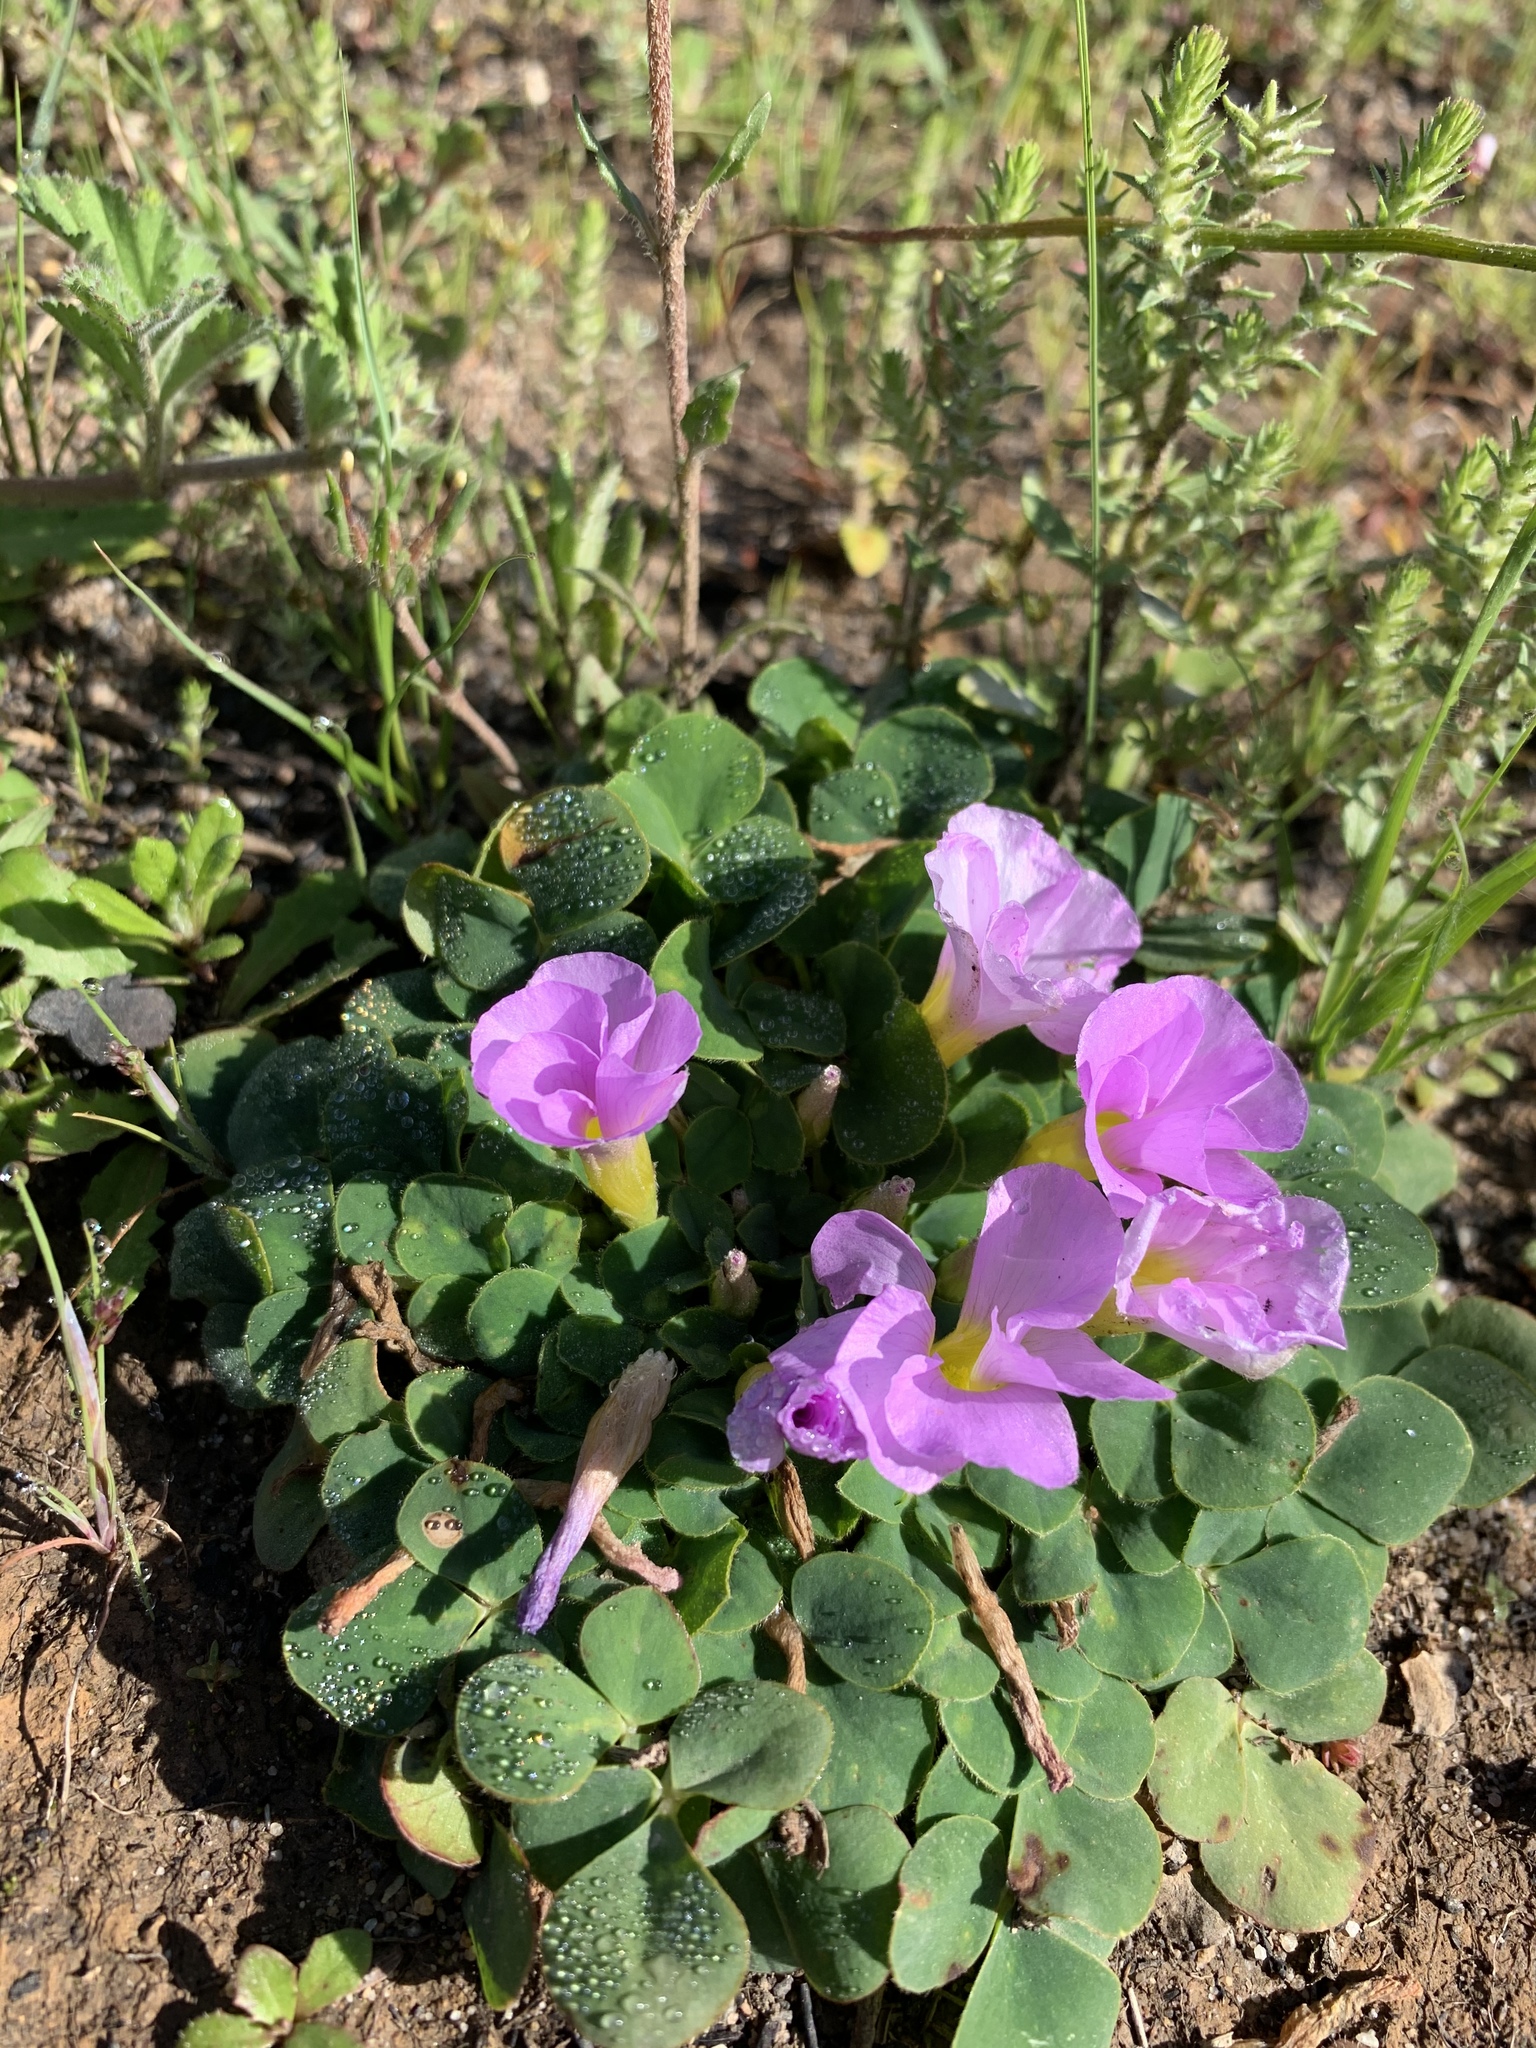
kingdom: Plantae
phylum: Tracheophyta
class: Magnoliopsida
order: Oxalidales
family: Oxalidaceae
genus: Oxalis
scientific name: Oxalis purpurea
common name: Purple woodsorrel
